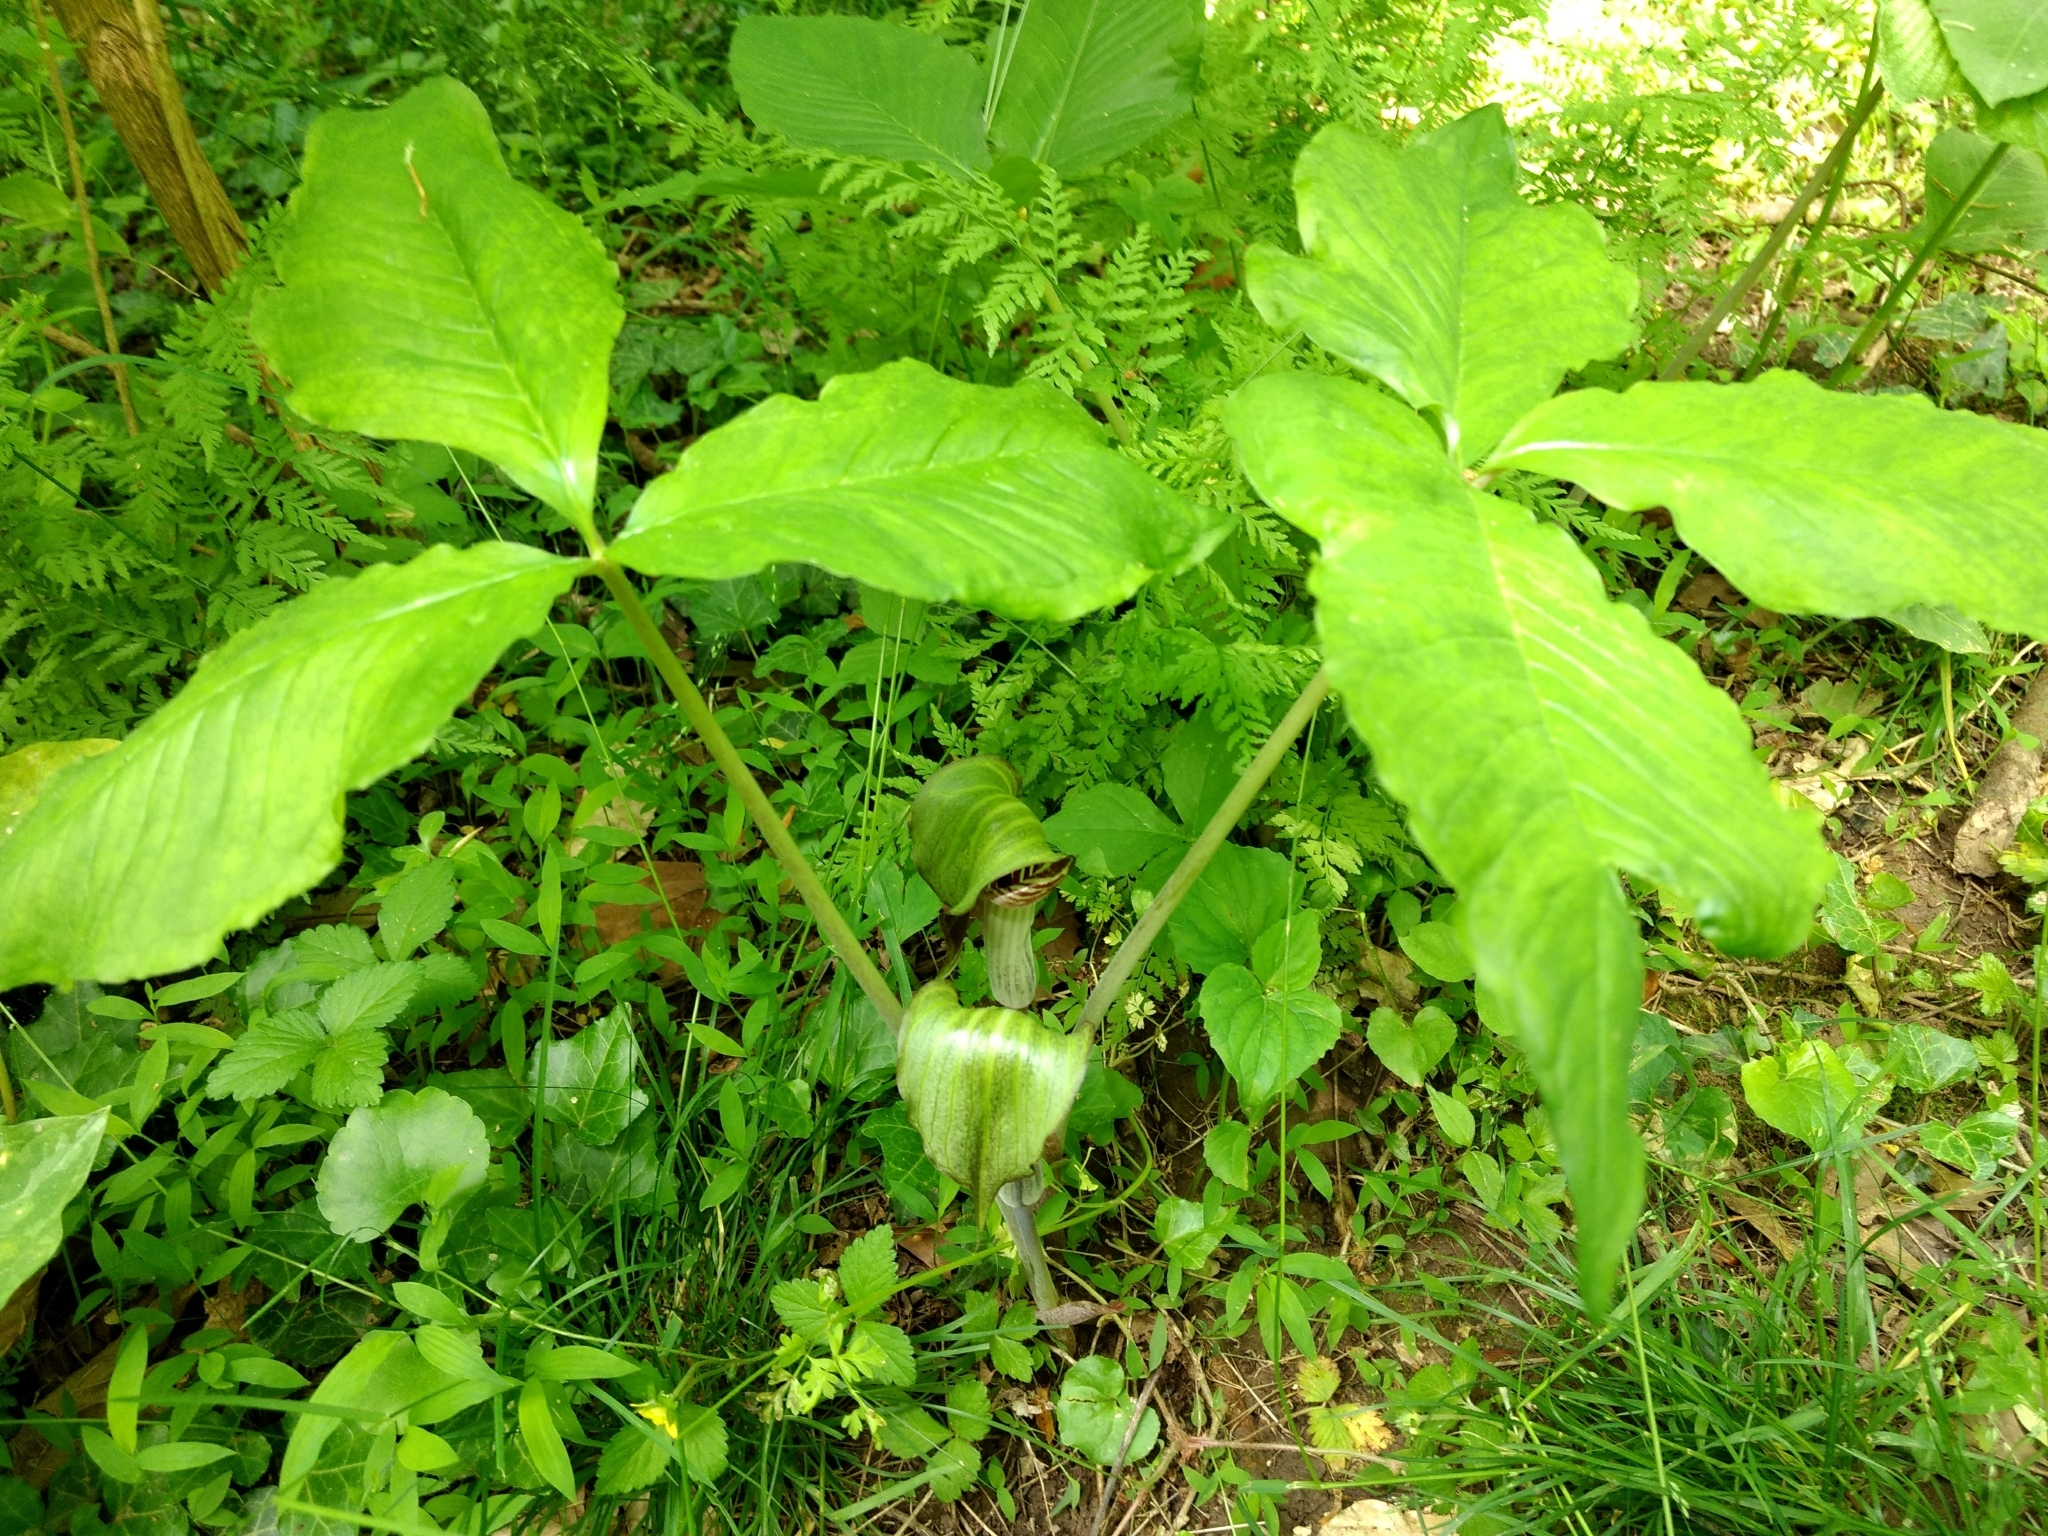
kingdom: Plantae
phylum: Tracheophyta
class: Liliopsida
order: Alismatales
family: Araceae
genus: Arisaema
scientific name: Arisaema triphyllum
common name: Jack-in-the-pulpit
